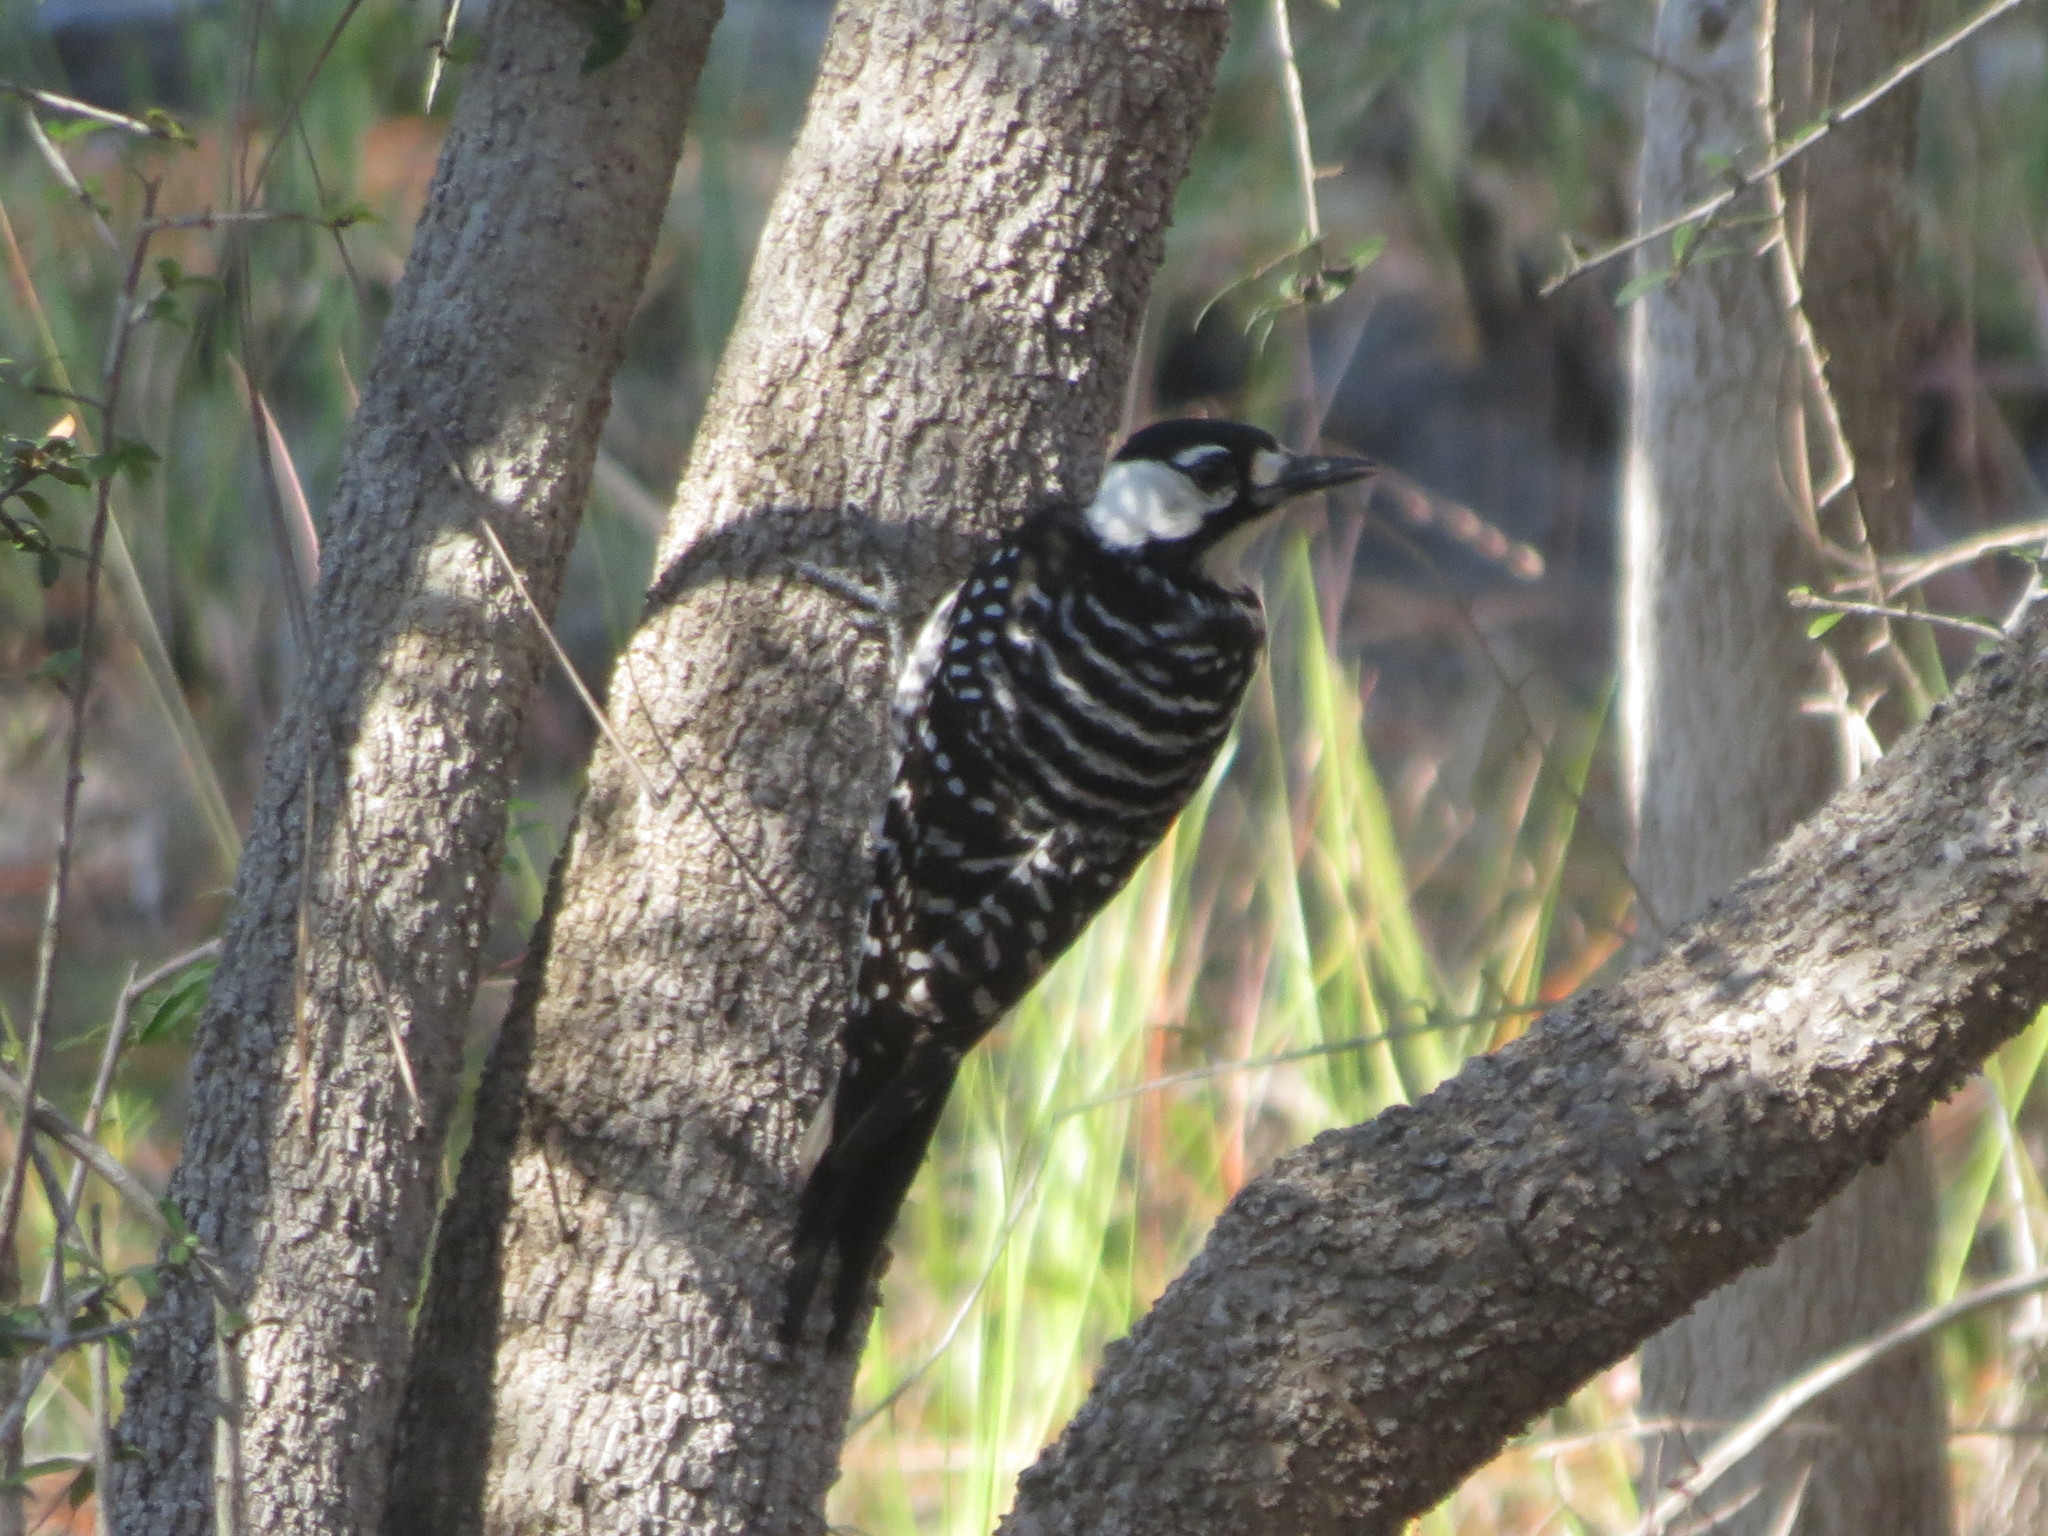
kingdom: Animalia
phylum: Chordata
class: Aves
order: Piciformes
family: Picidae
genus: Leuconotopicus
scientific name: Leuconotopicus borealis
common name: Red-cockaded woodpecker
